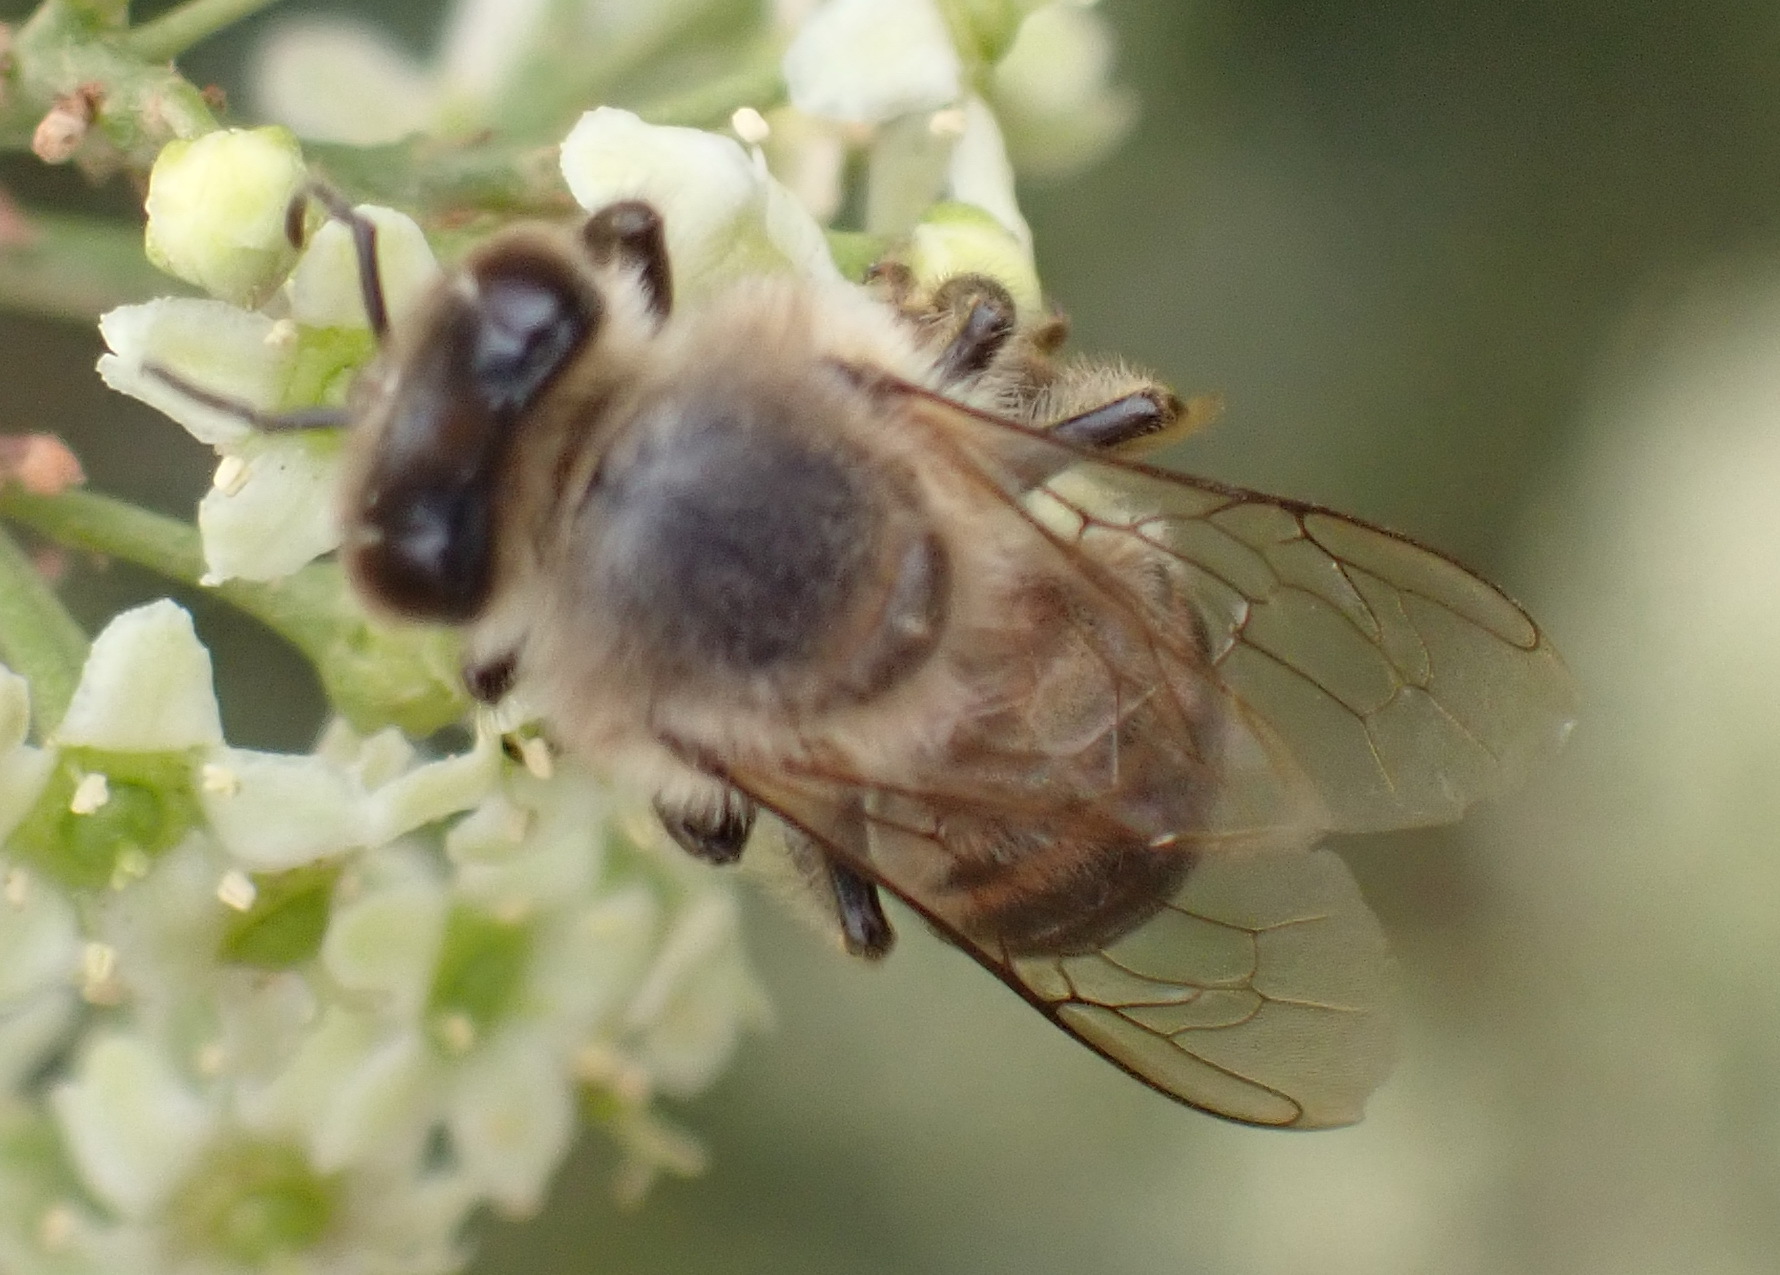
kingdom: Animalia
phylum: Arthropoda
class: Insecta
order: Hymenoptera
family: Apidae
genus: Apis
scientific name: Apis mellifera
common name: Honey bee
